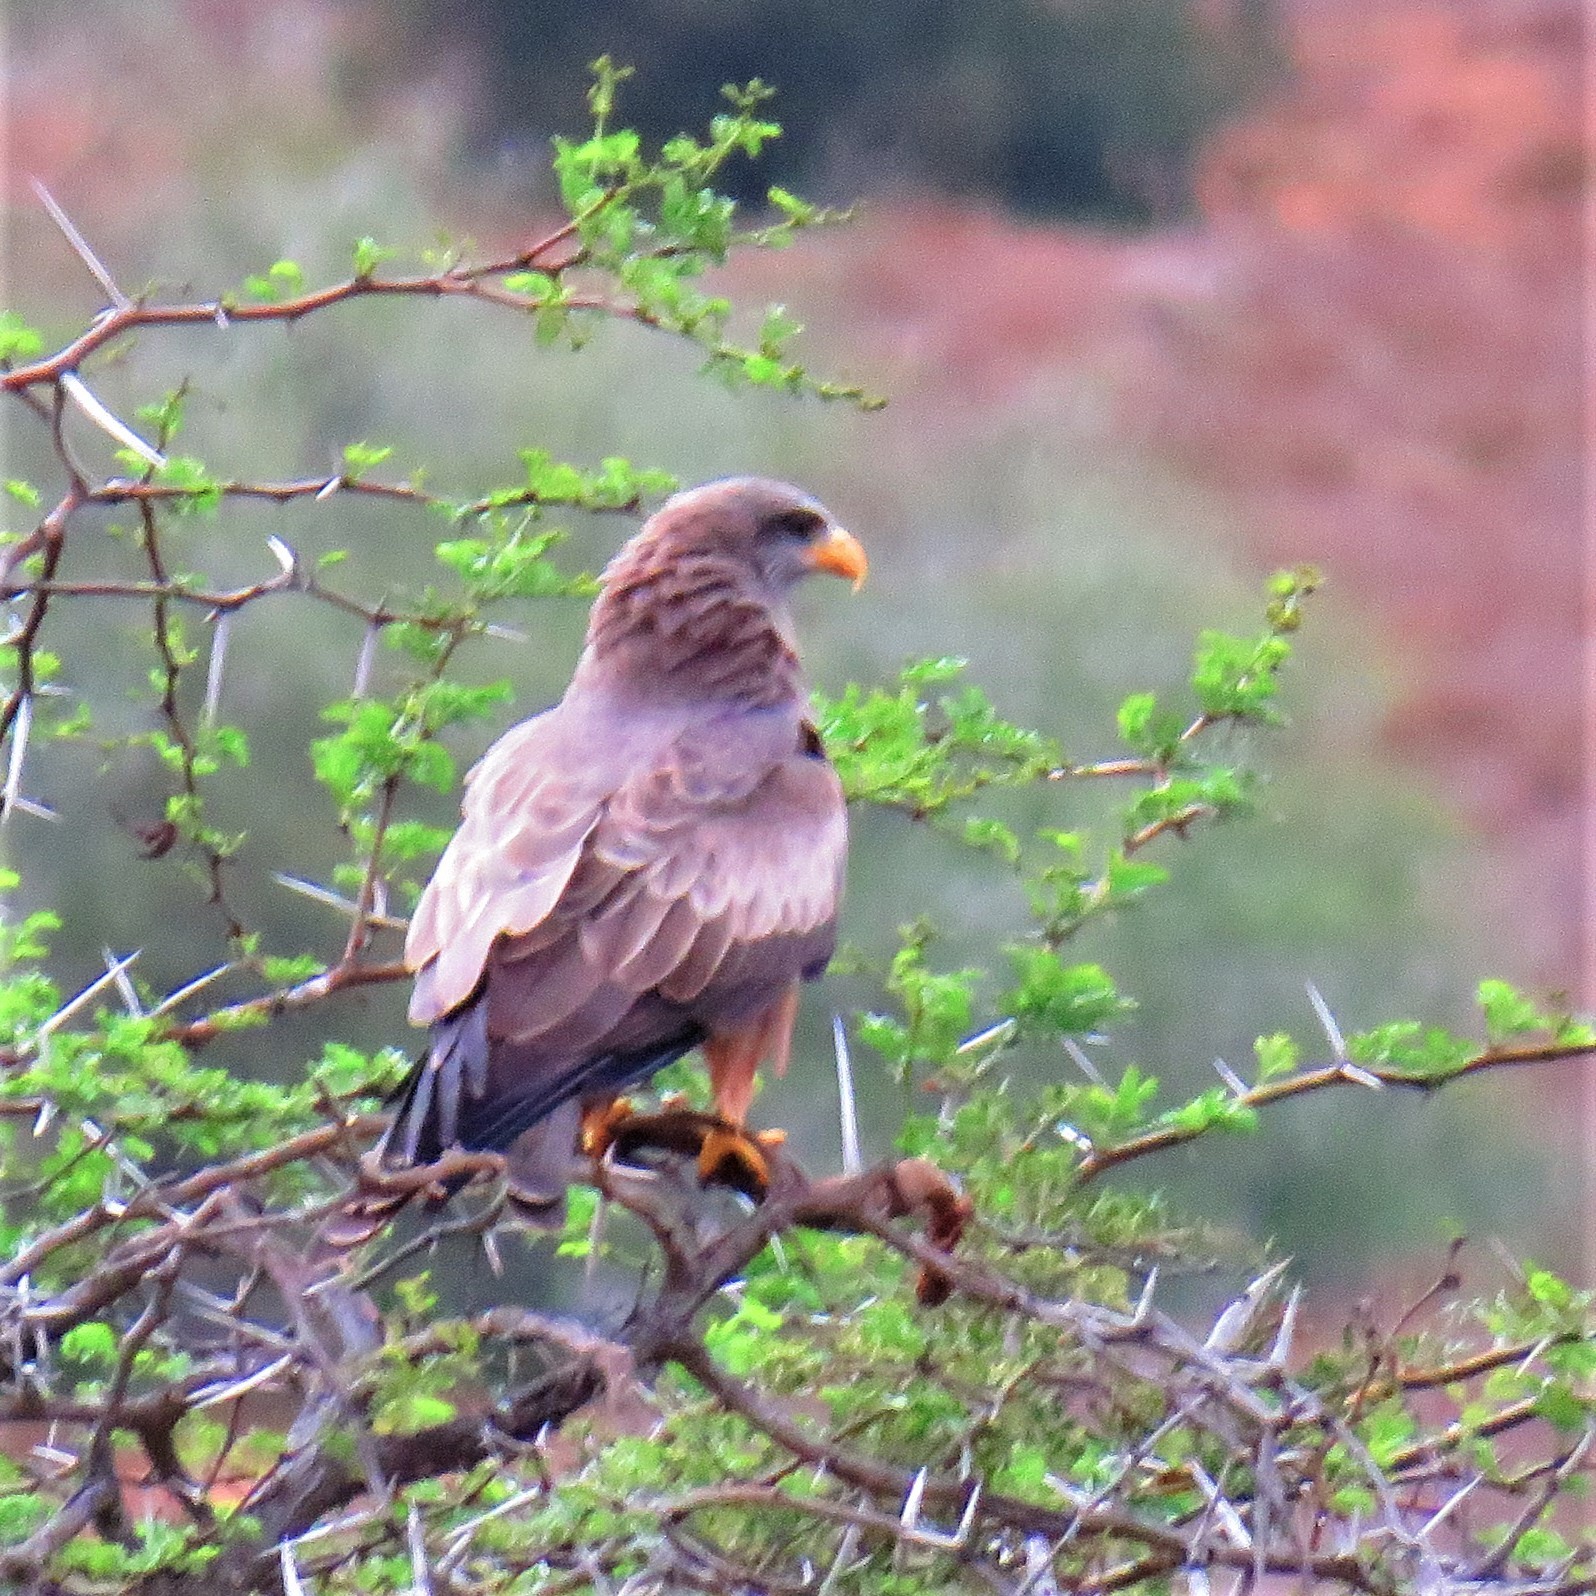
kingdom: Animalia
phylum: Chordata
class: Aves
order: Accipitriformes
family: Accipitridae
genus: Milvus
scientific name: Milvus migrans
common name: Black kite
